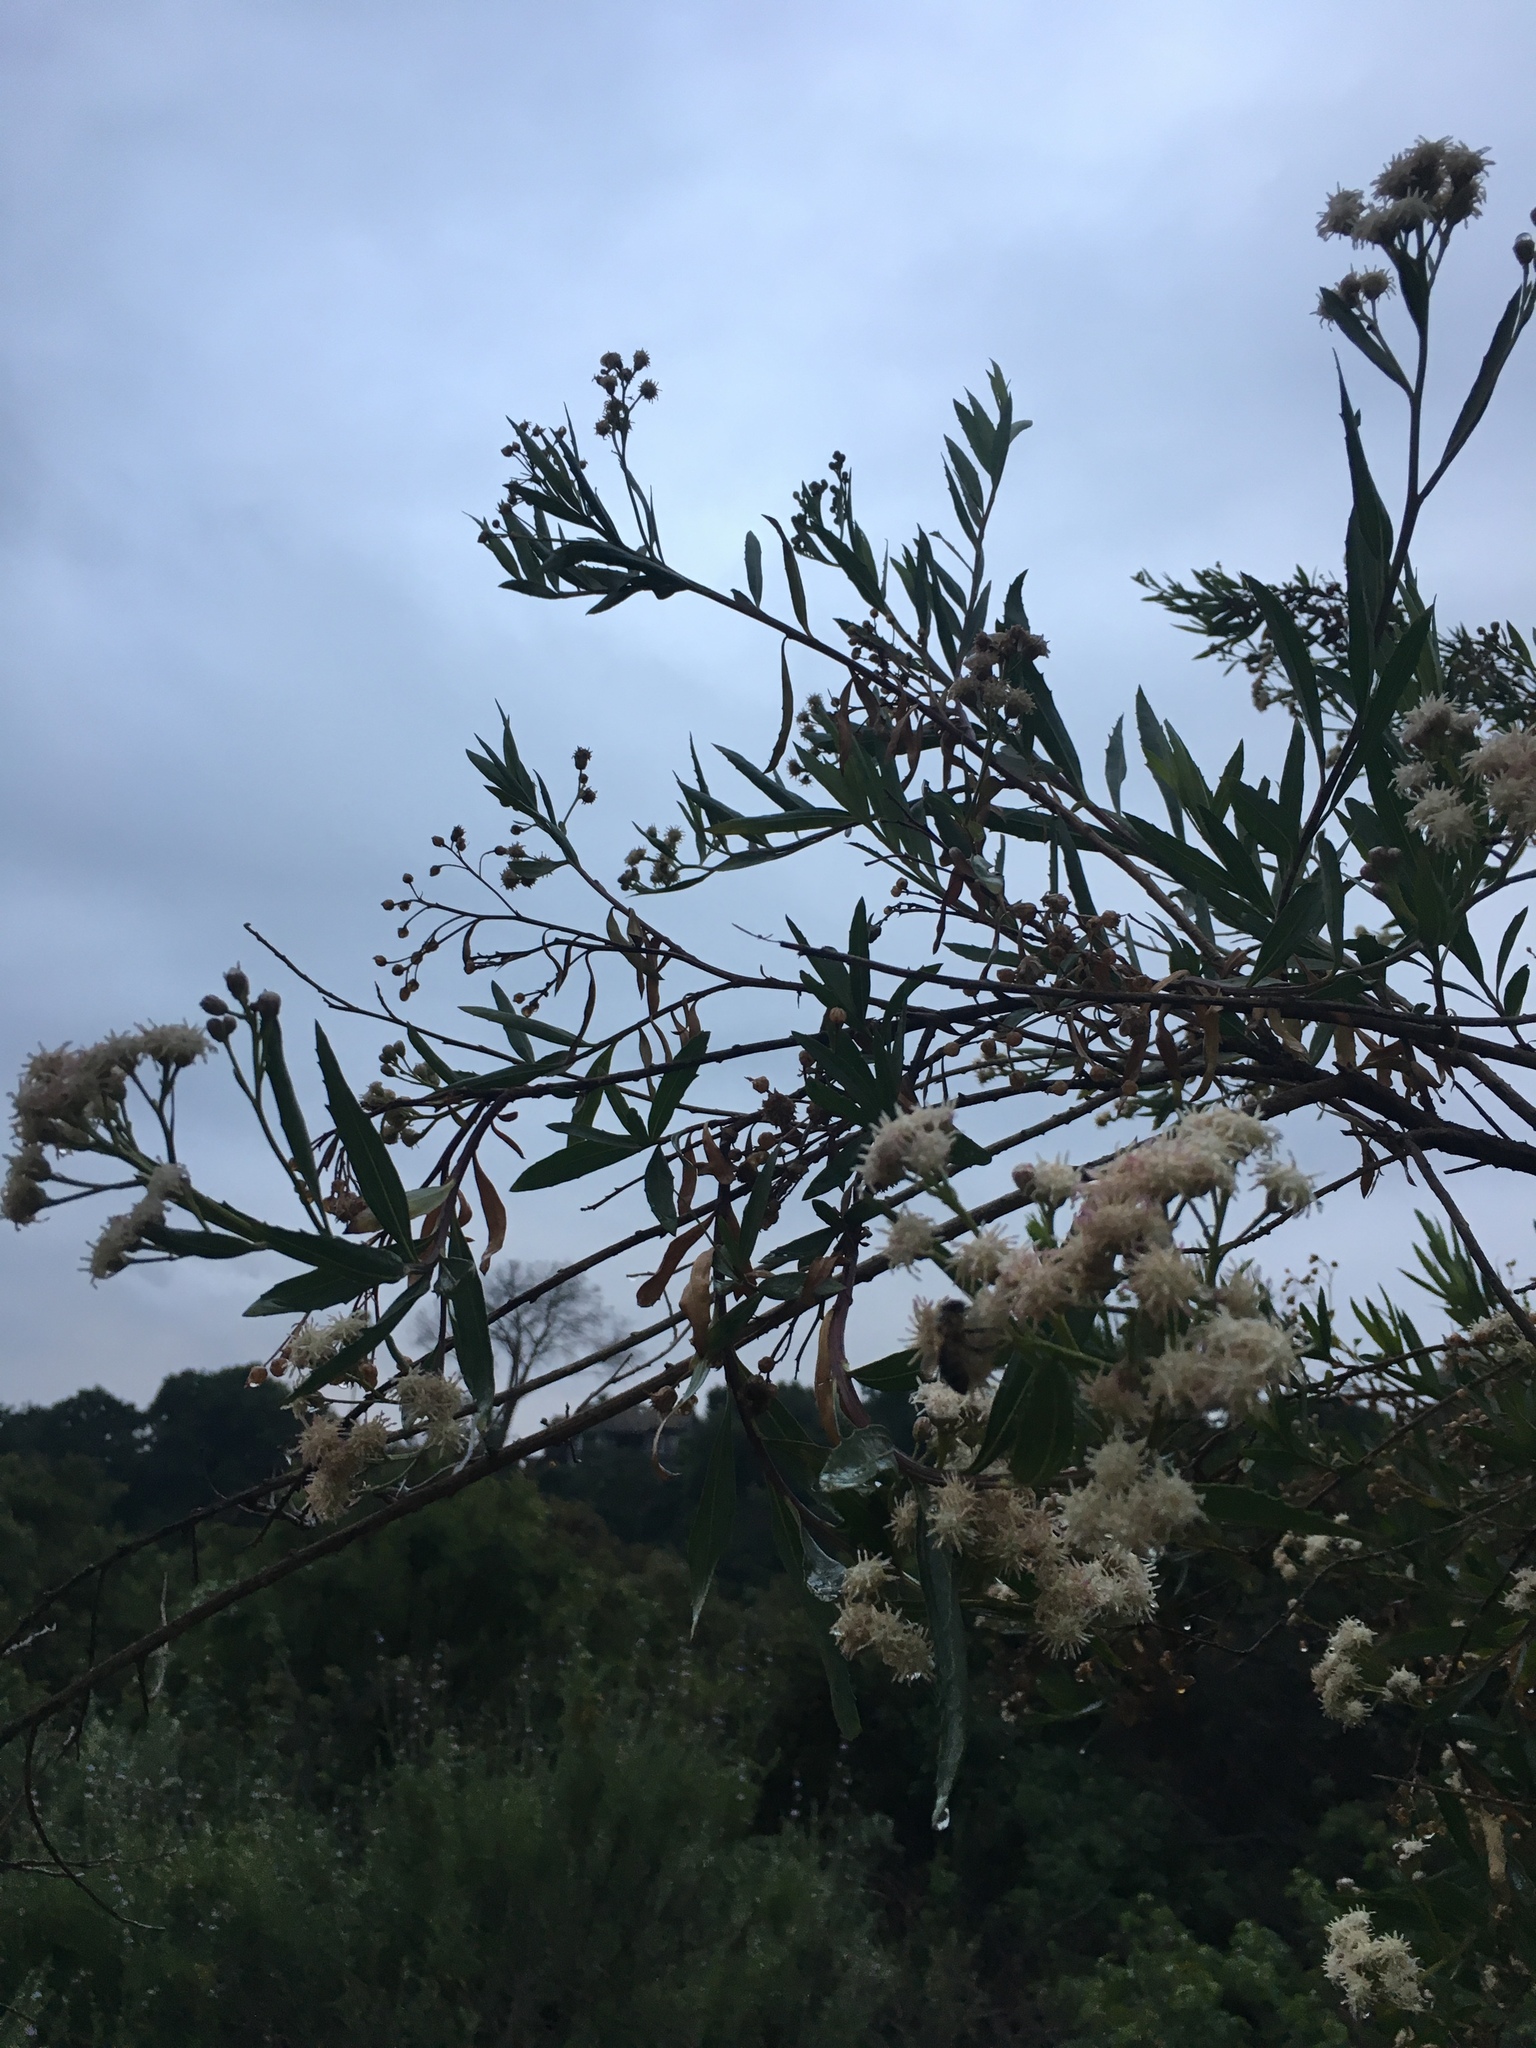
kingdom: Plantae
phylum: Tracheophyta
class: Magnoliopsida
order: Asterales
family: Asteraceae
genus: Baccharis
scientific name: Baccharis salicifolia
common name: Sticky baccharis
